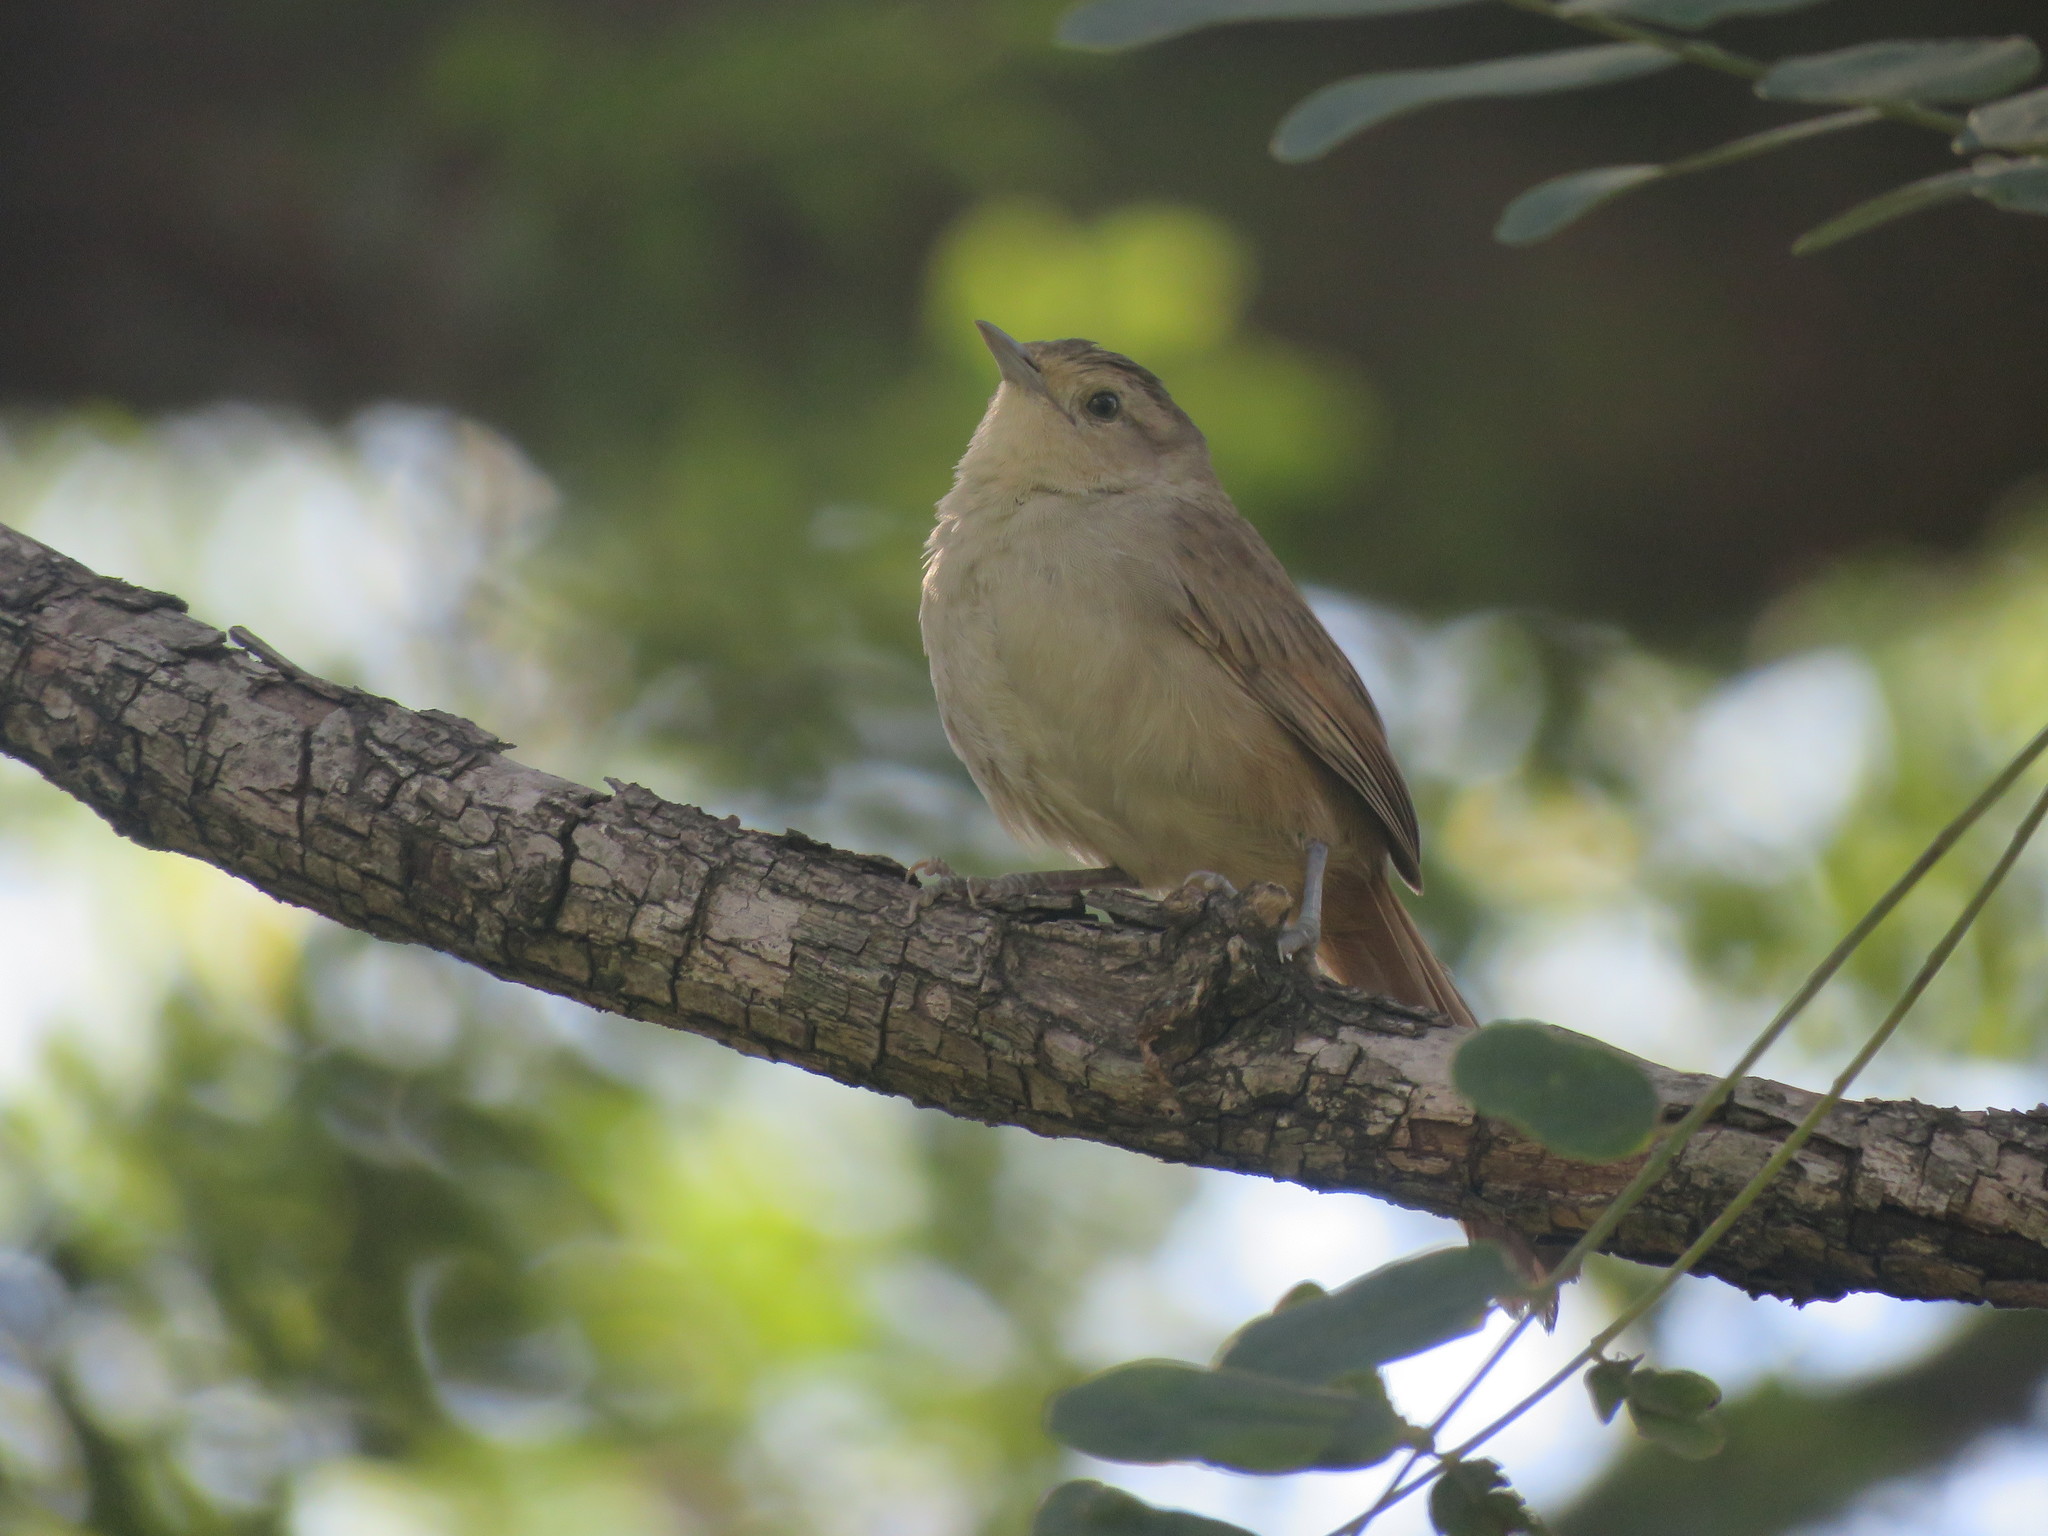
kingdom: Animalia
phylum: Chordata
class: Aves
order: Passeriformes
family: Furnariidae
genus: Phacellodomus
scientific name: Phacellodomus sibilatrix
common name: Little thornbird
